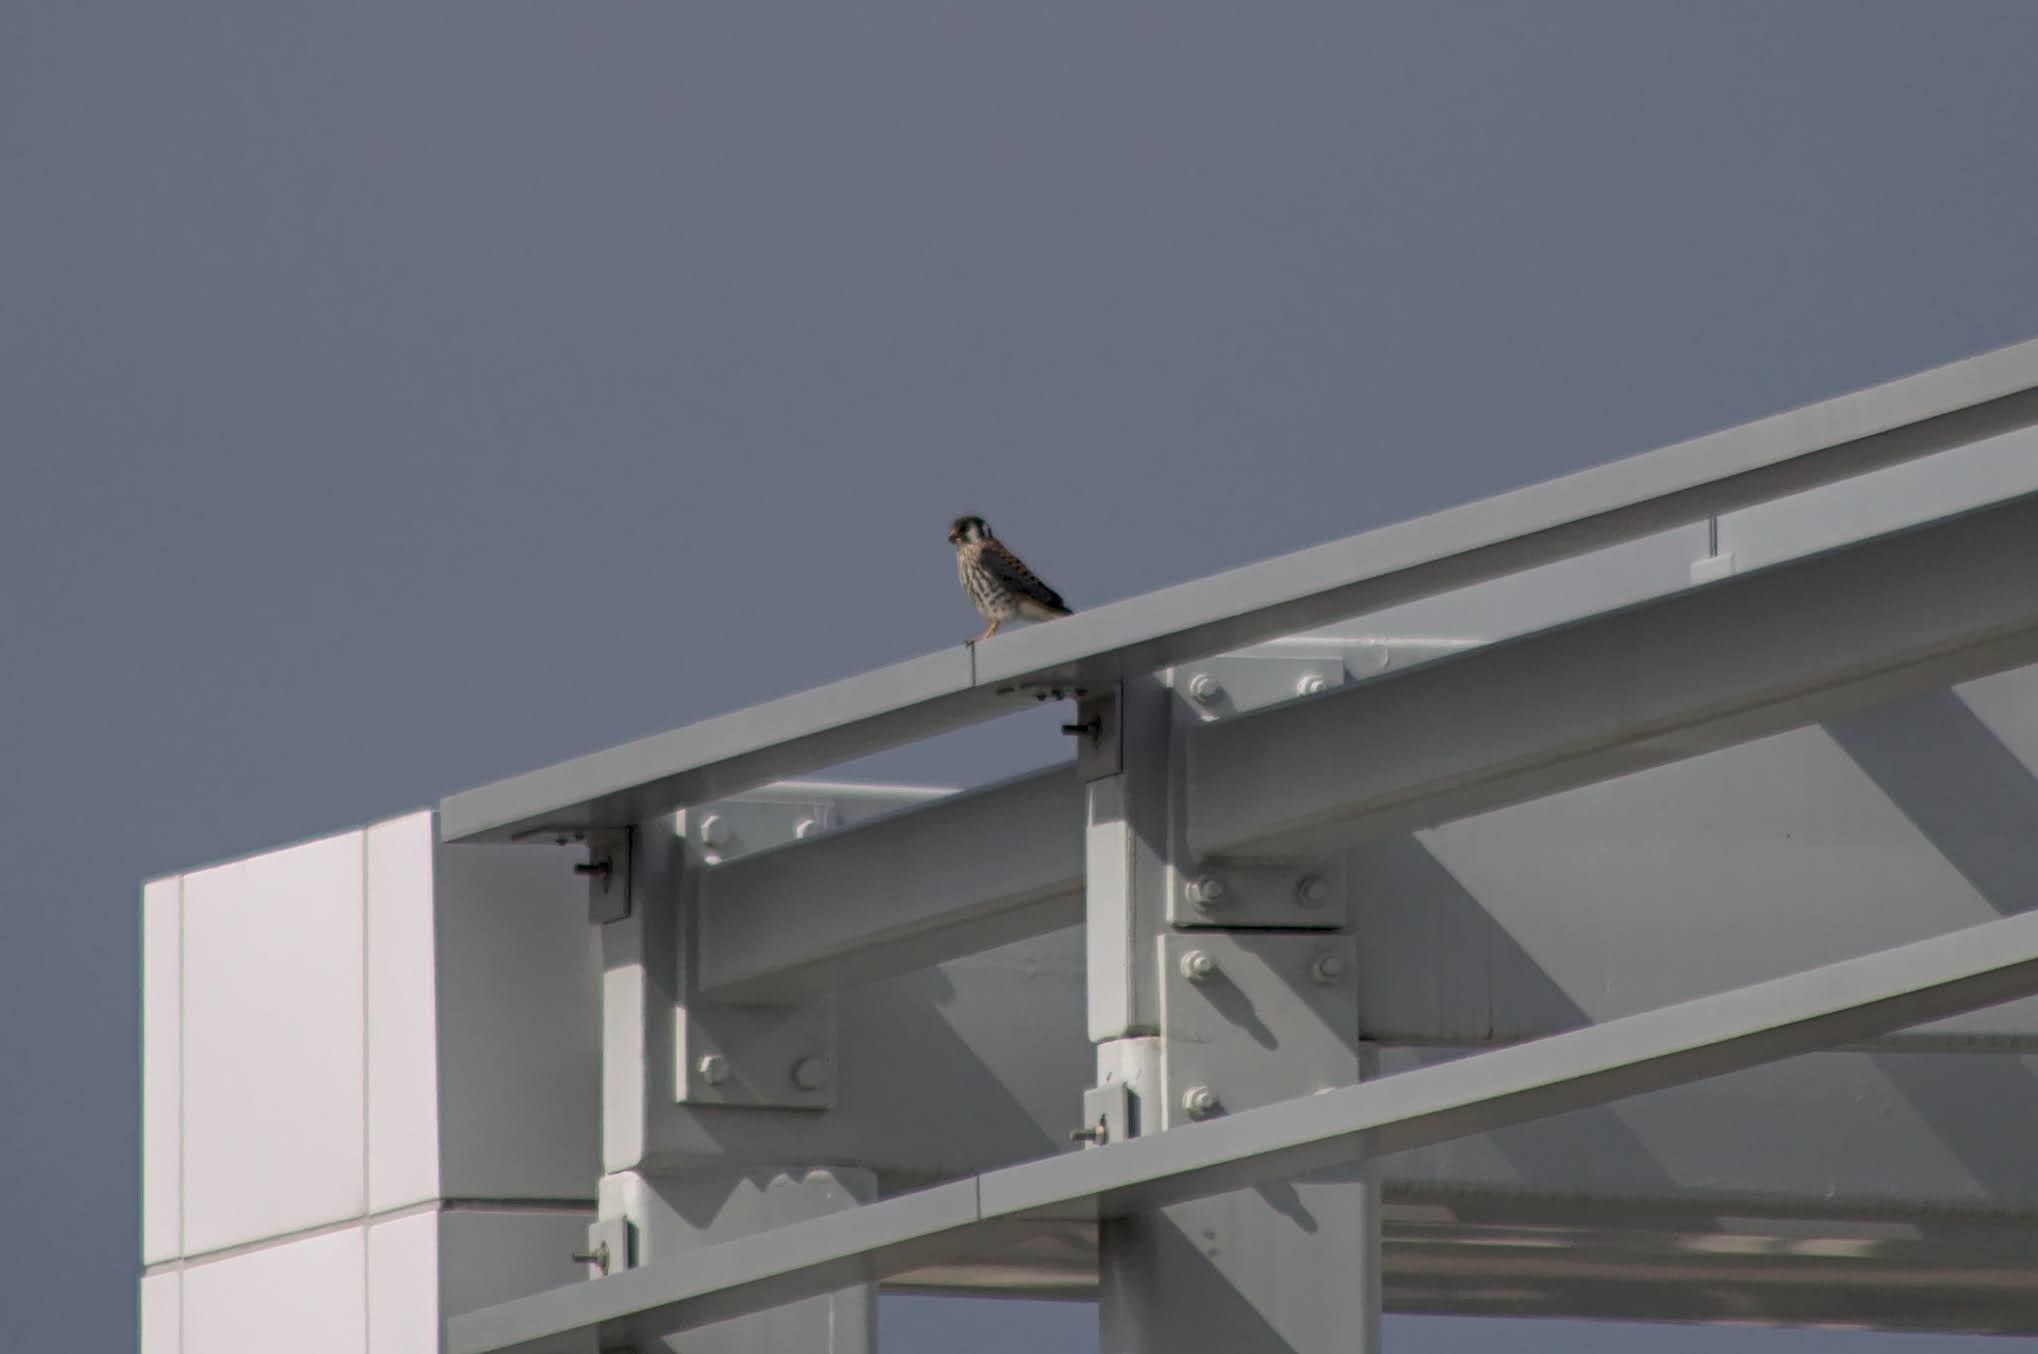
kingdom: Animalia
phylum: Chordata
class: Aves
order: Falconiformes
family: Falconidae
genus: Falco
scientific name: Falco sparverius
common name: American kestrel
